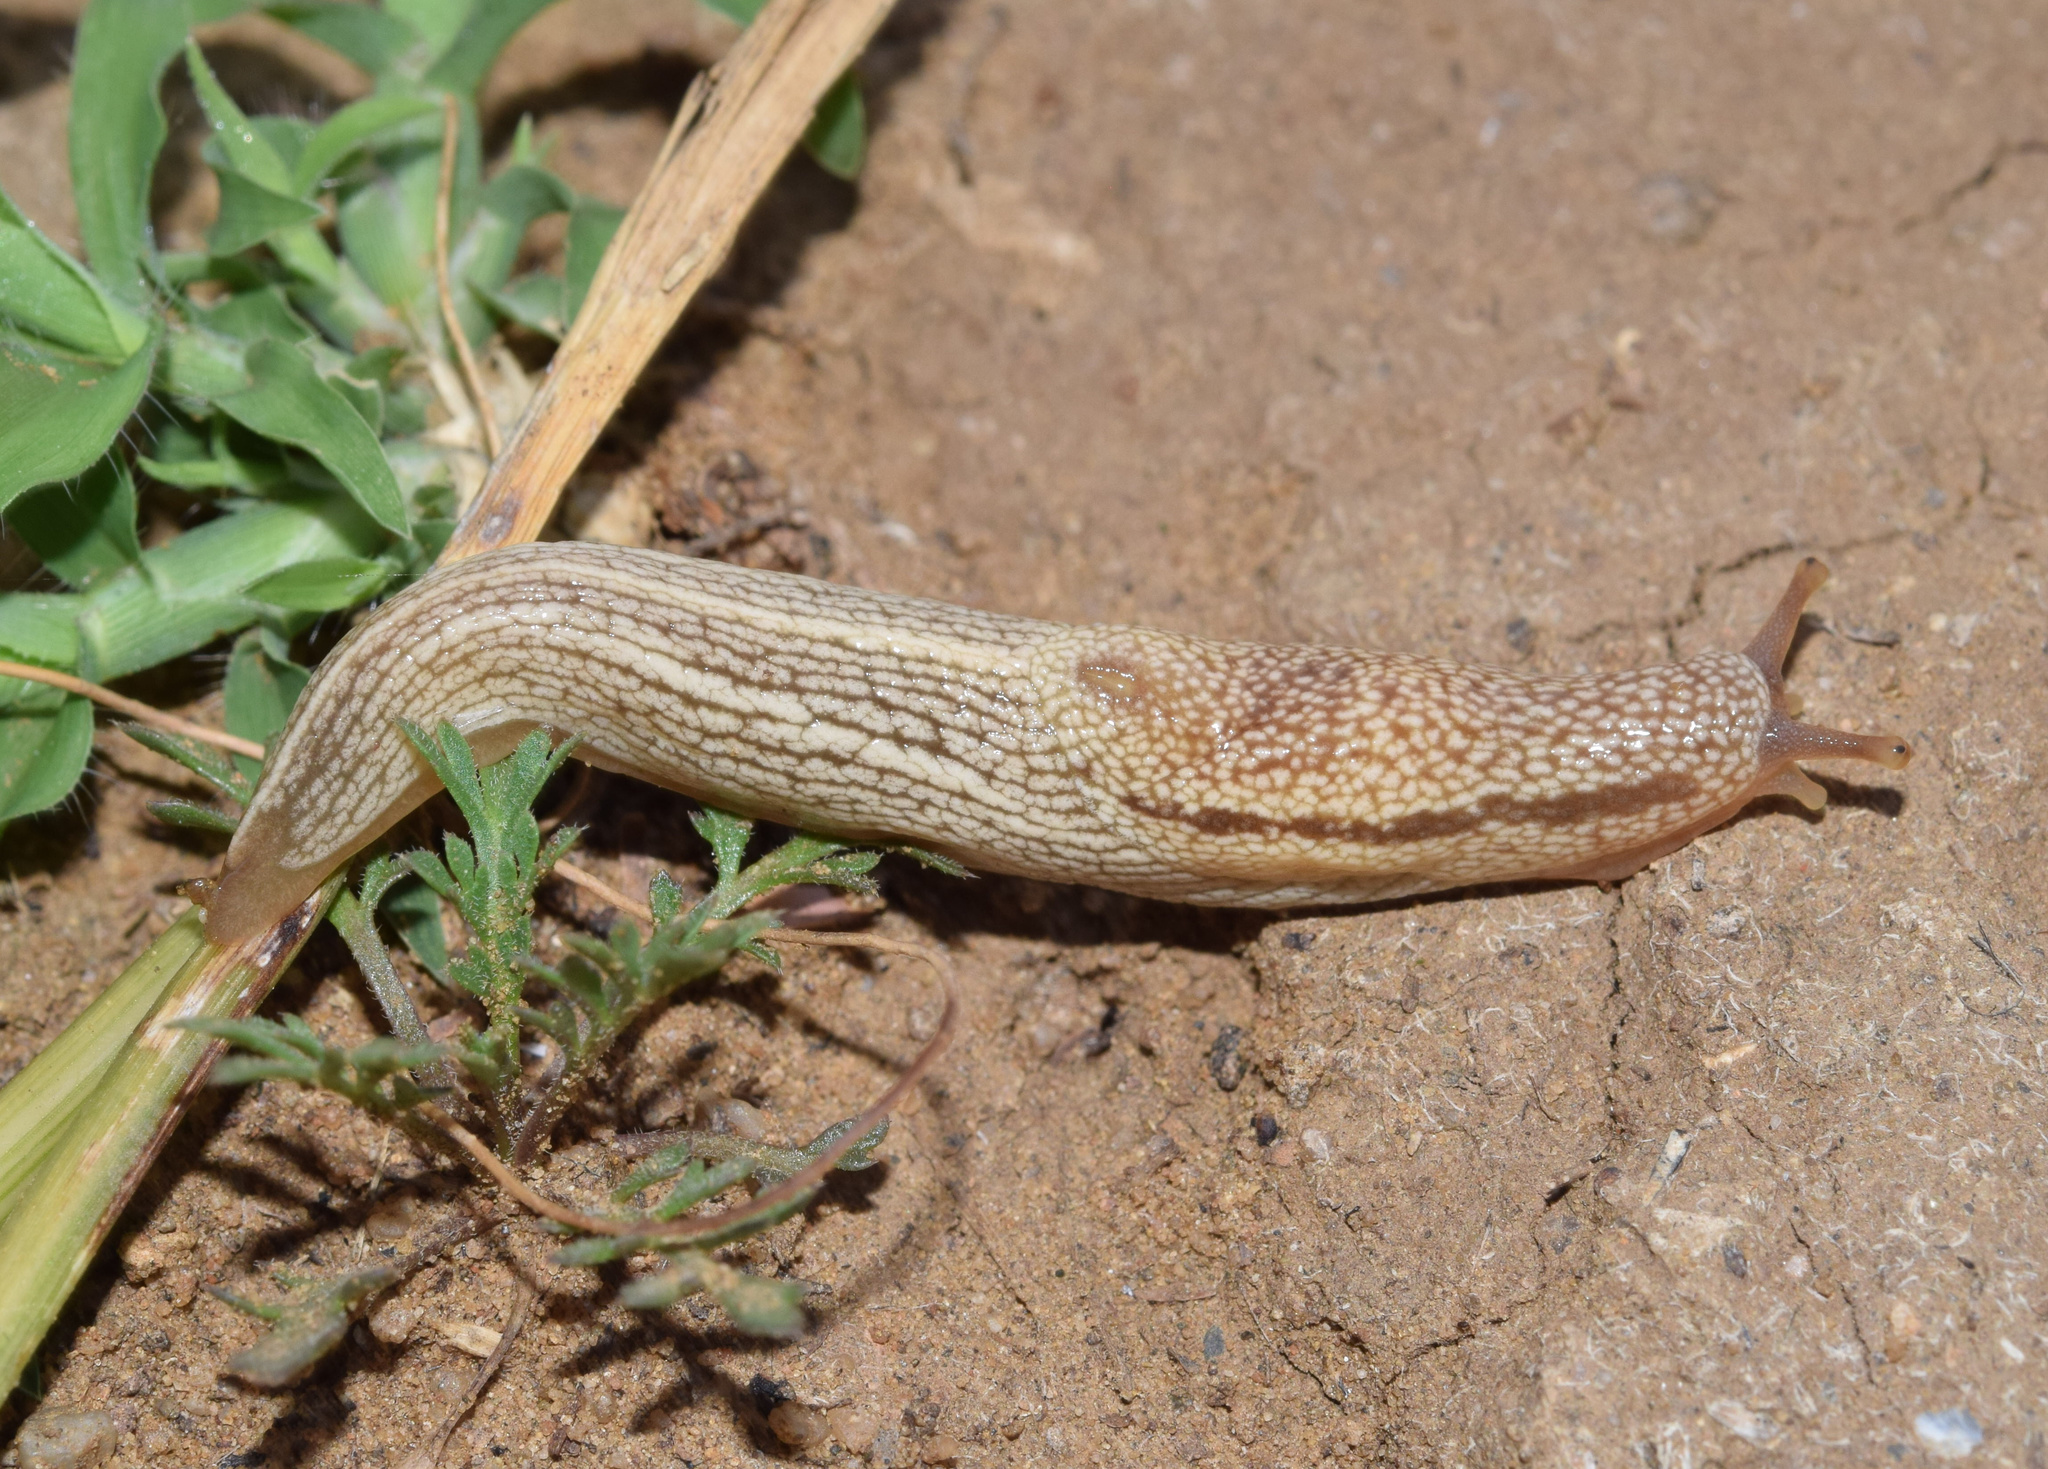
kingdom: Animalia
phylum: Mollusca
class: Gastropoda
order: Stylommatophora
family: Urocyclidae
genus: Elisolimax
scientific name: Elisolimax flavescens
